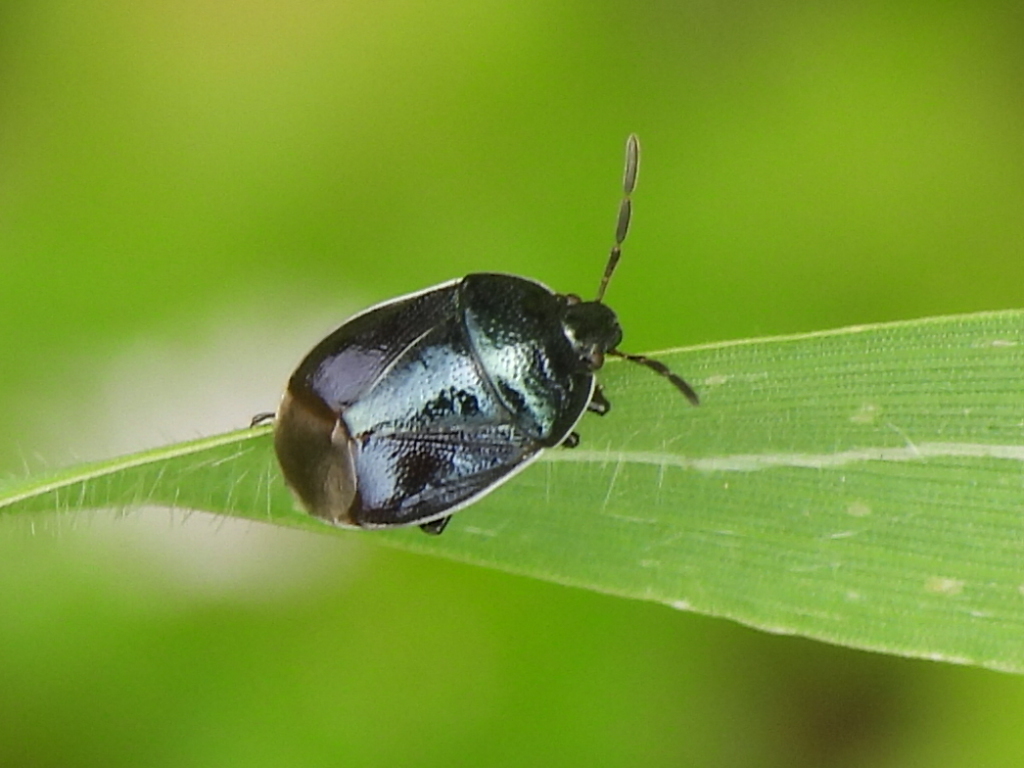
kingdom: Animalia
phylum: Arthropoda
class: Insecta
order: Hemiptera
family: Cydnidae
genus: Sehirus
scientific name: Sehirus cinctus
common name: White-margined burrower bug
